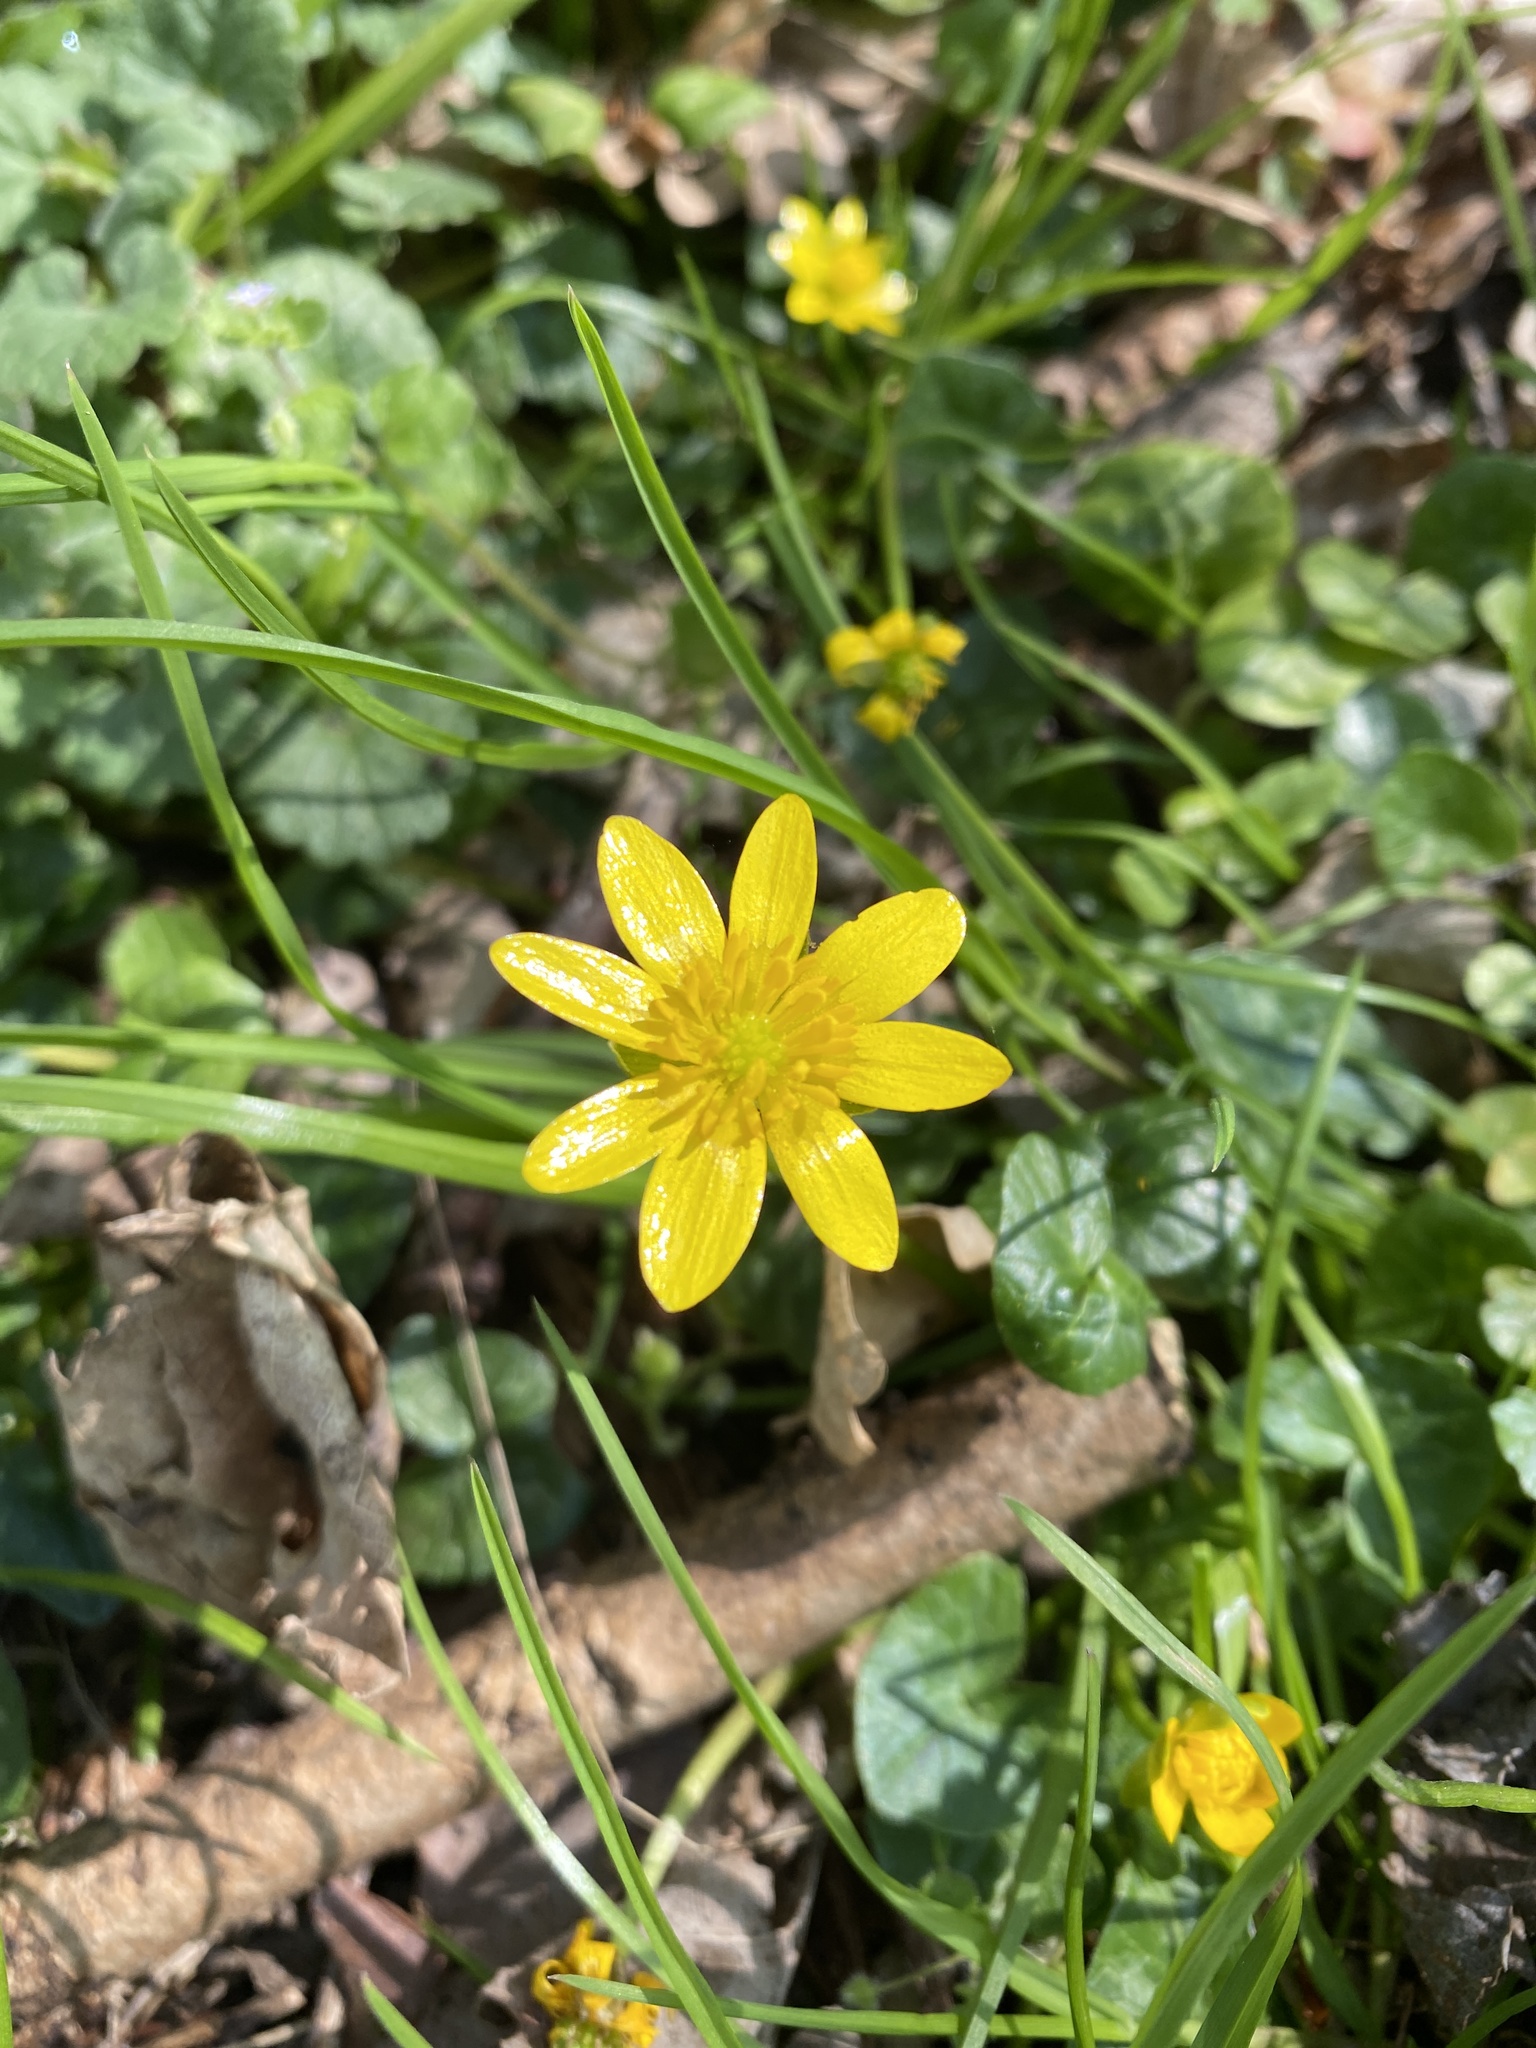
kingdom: Plantae
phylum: Tracheophyta
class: Magnoliopsida
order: Ranunculales
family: Ranunculaceae
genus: Ficaria
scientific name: Ficaria verna
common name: Lesser celandine
